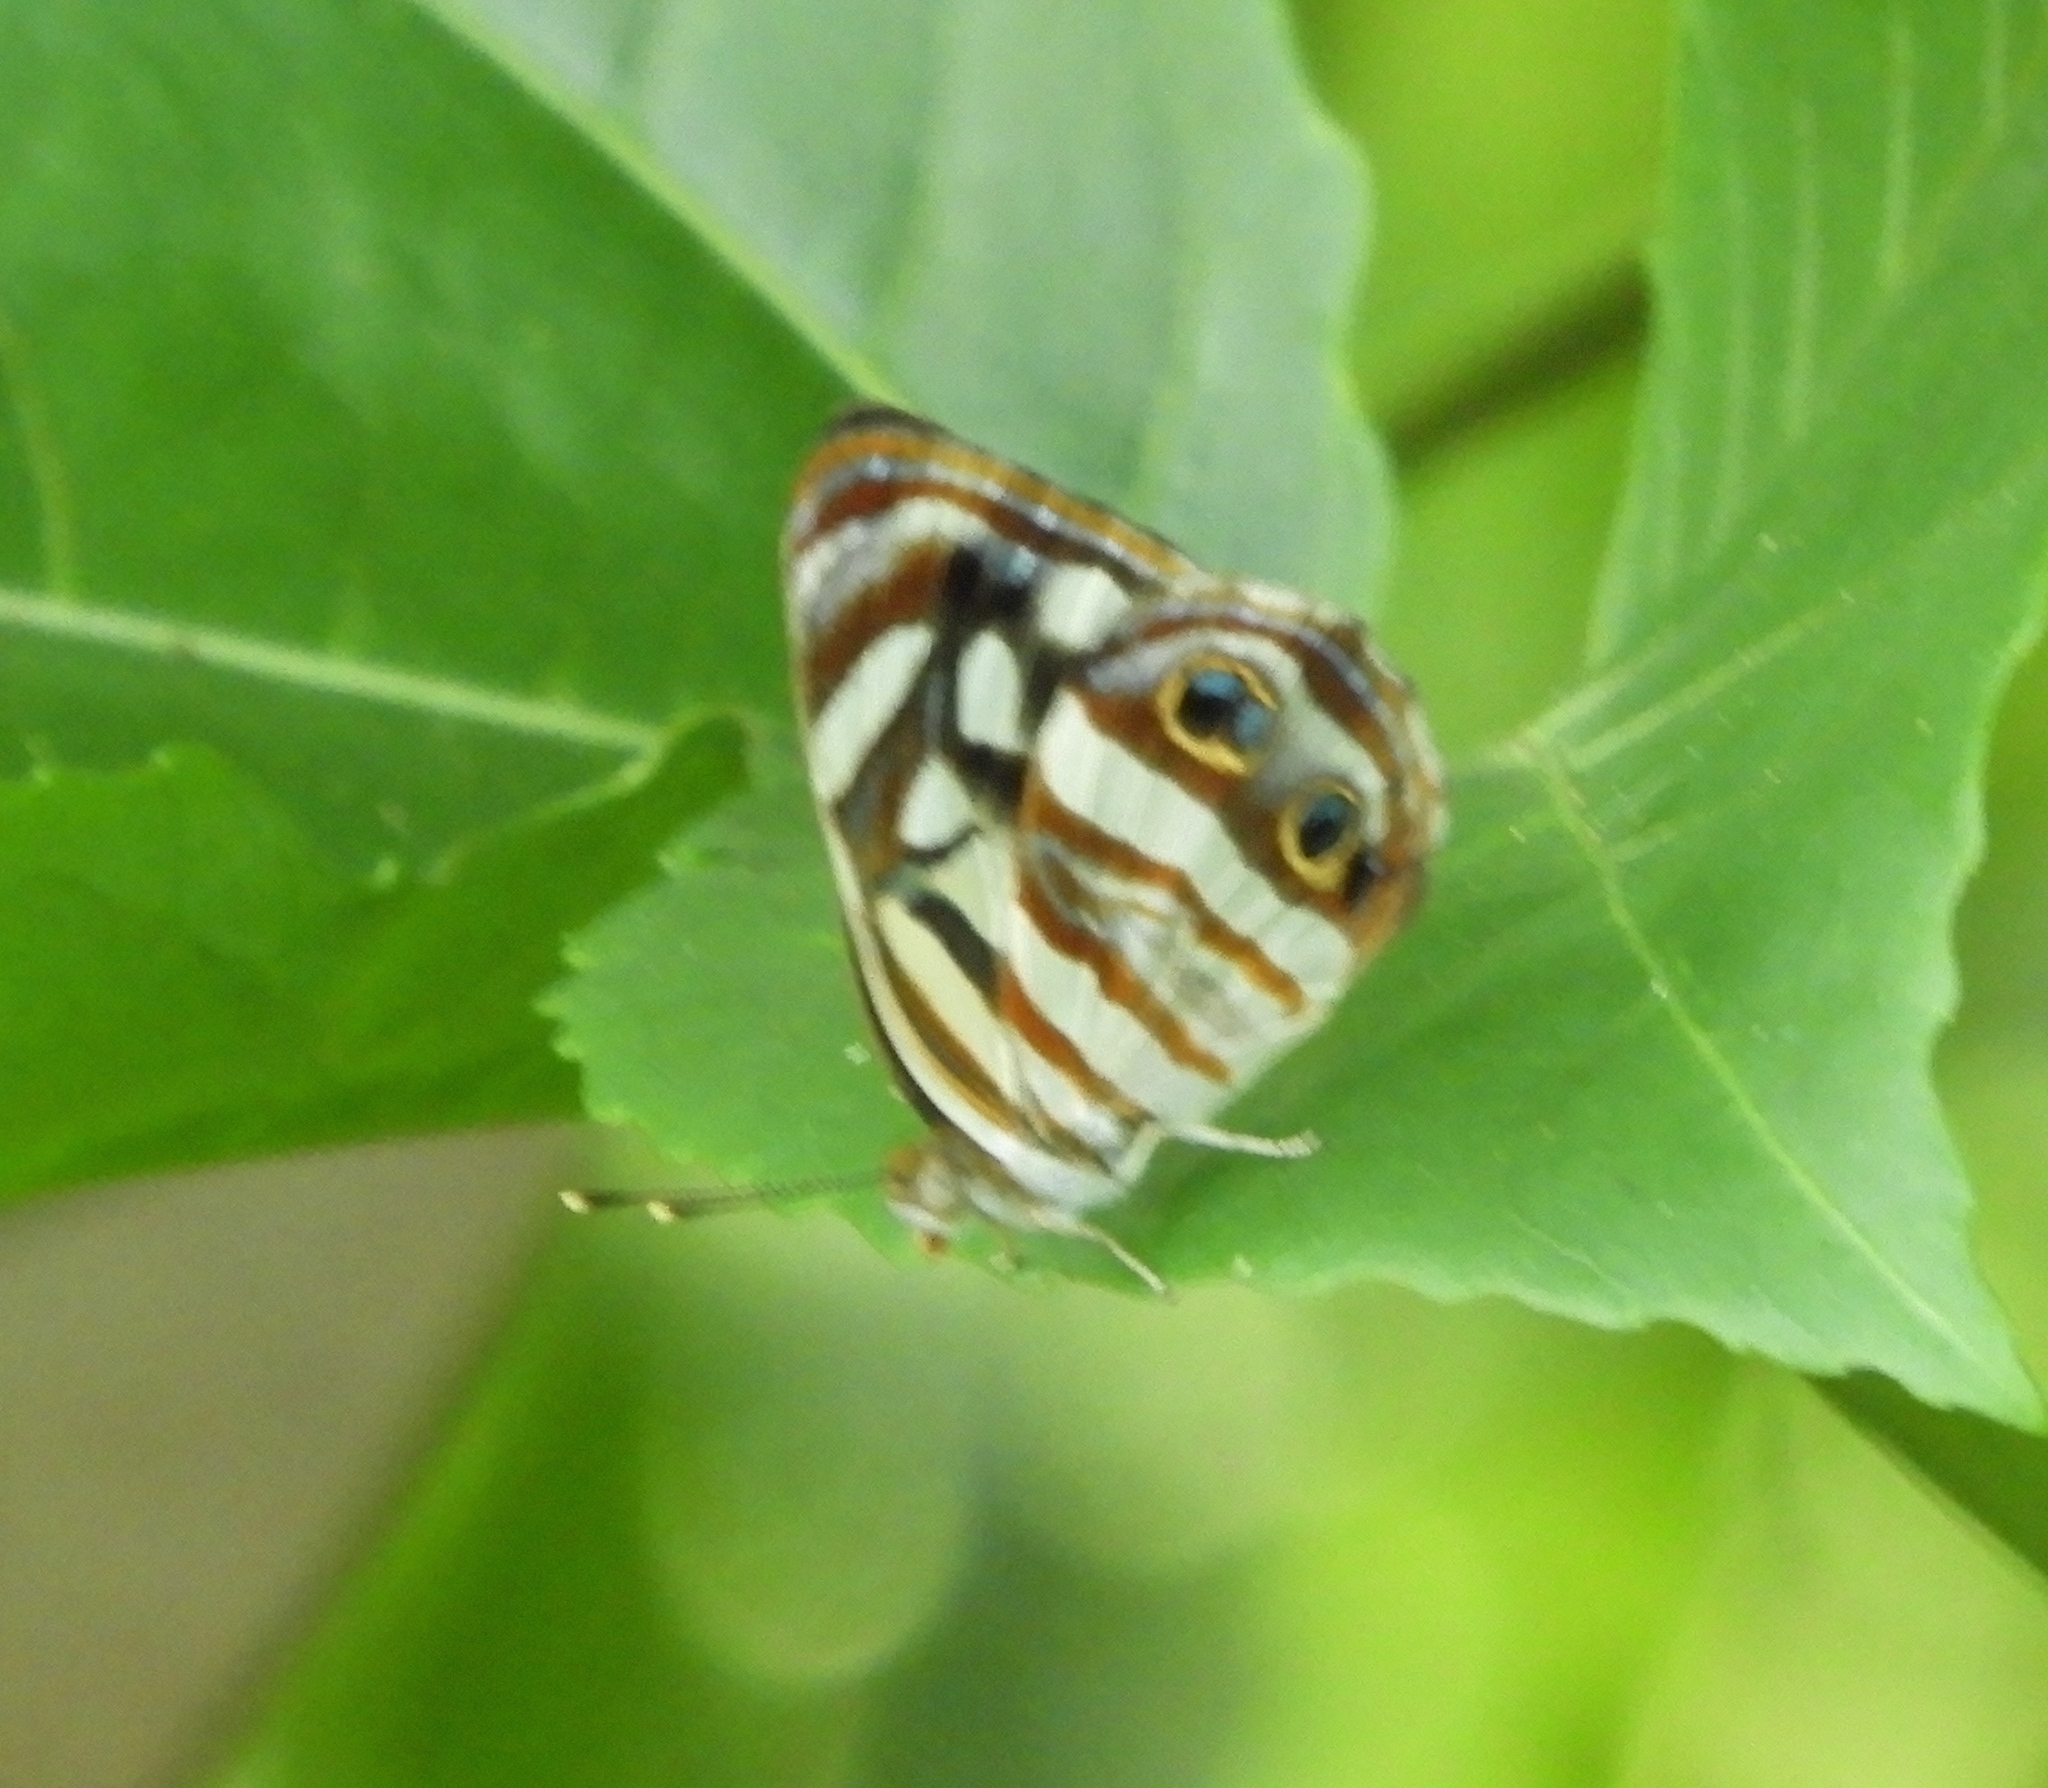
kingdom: Animalia
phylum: Arthropoda
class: Insecta
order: Lepidoptera
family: Nymphalidae
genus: Dynamine
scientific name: Dynamine mylitta
